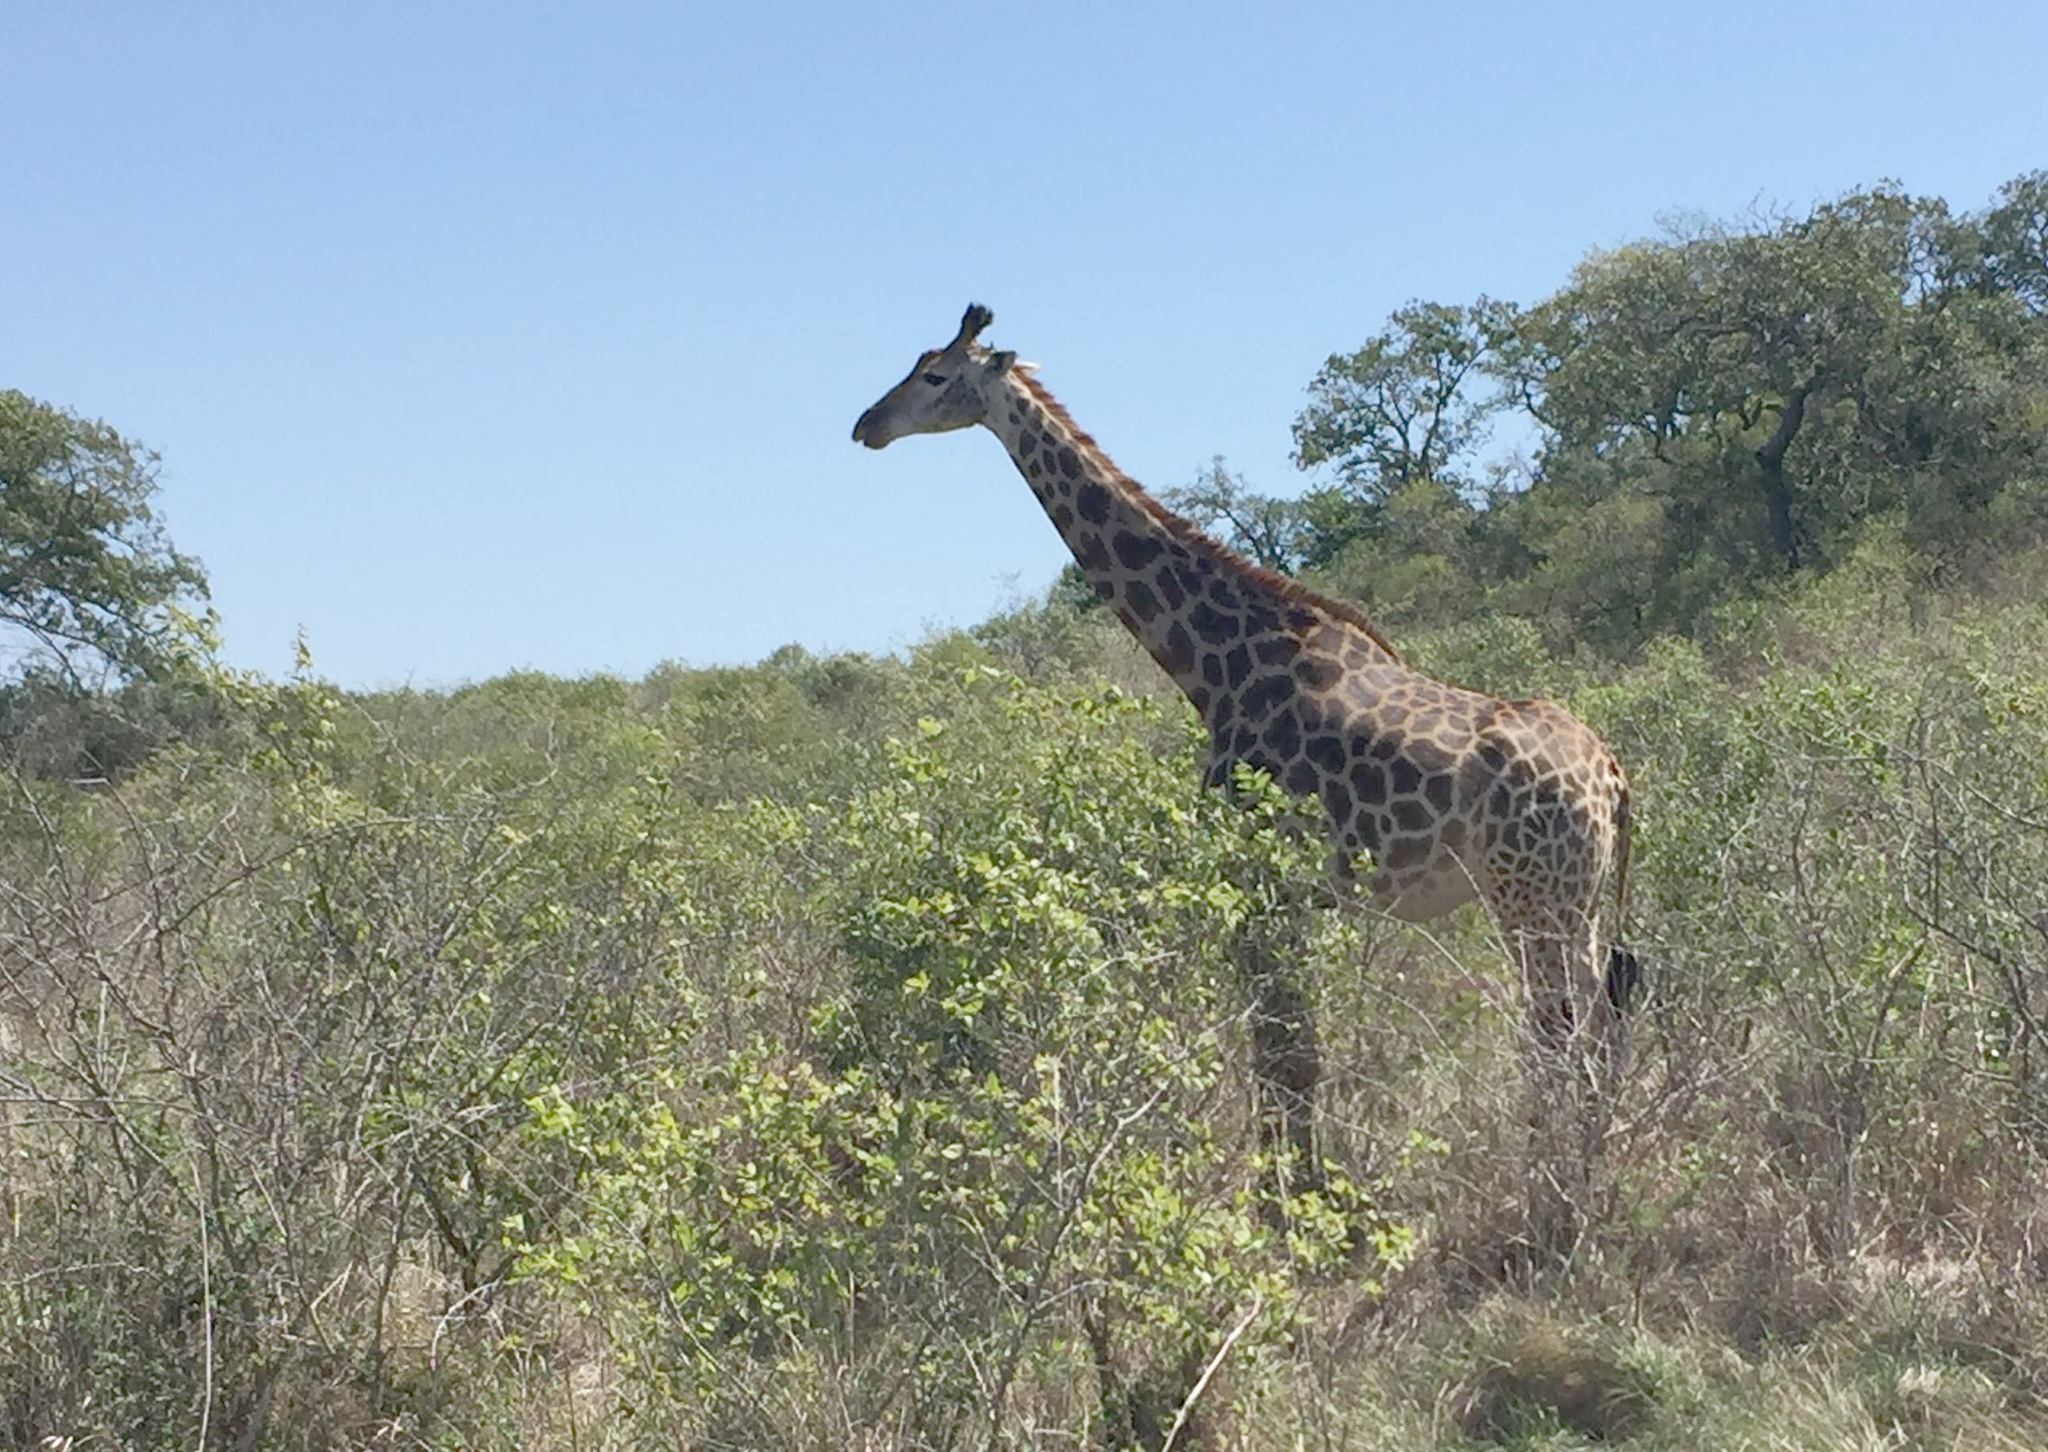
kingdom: Animalia
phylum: Chordata
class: Mammalia
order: Artiodactyla
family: Giraffidae
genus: Giraffa
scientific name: Giraffa giraffa
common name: Southern giraffe
